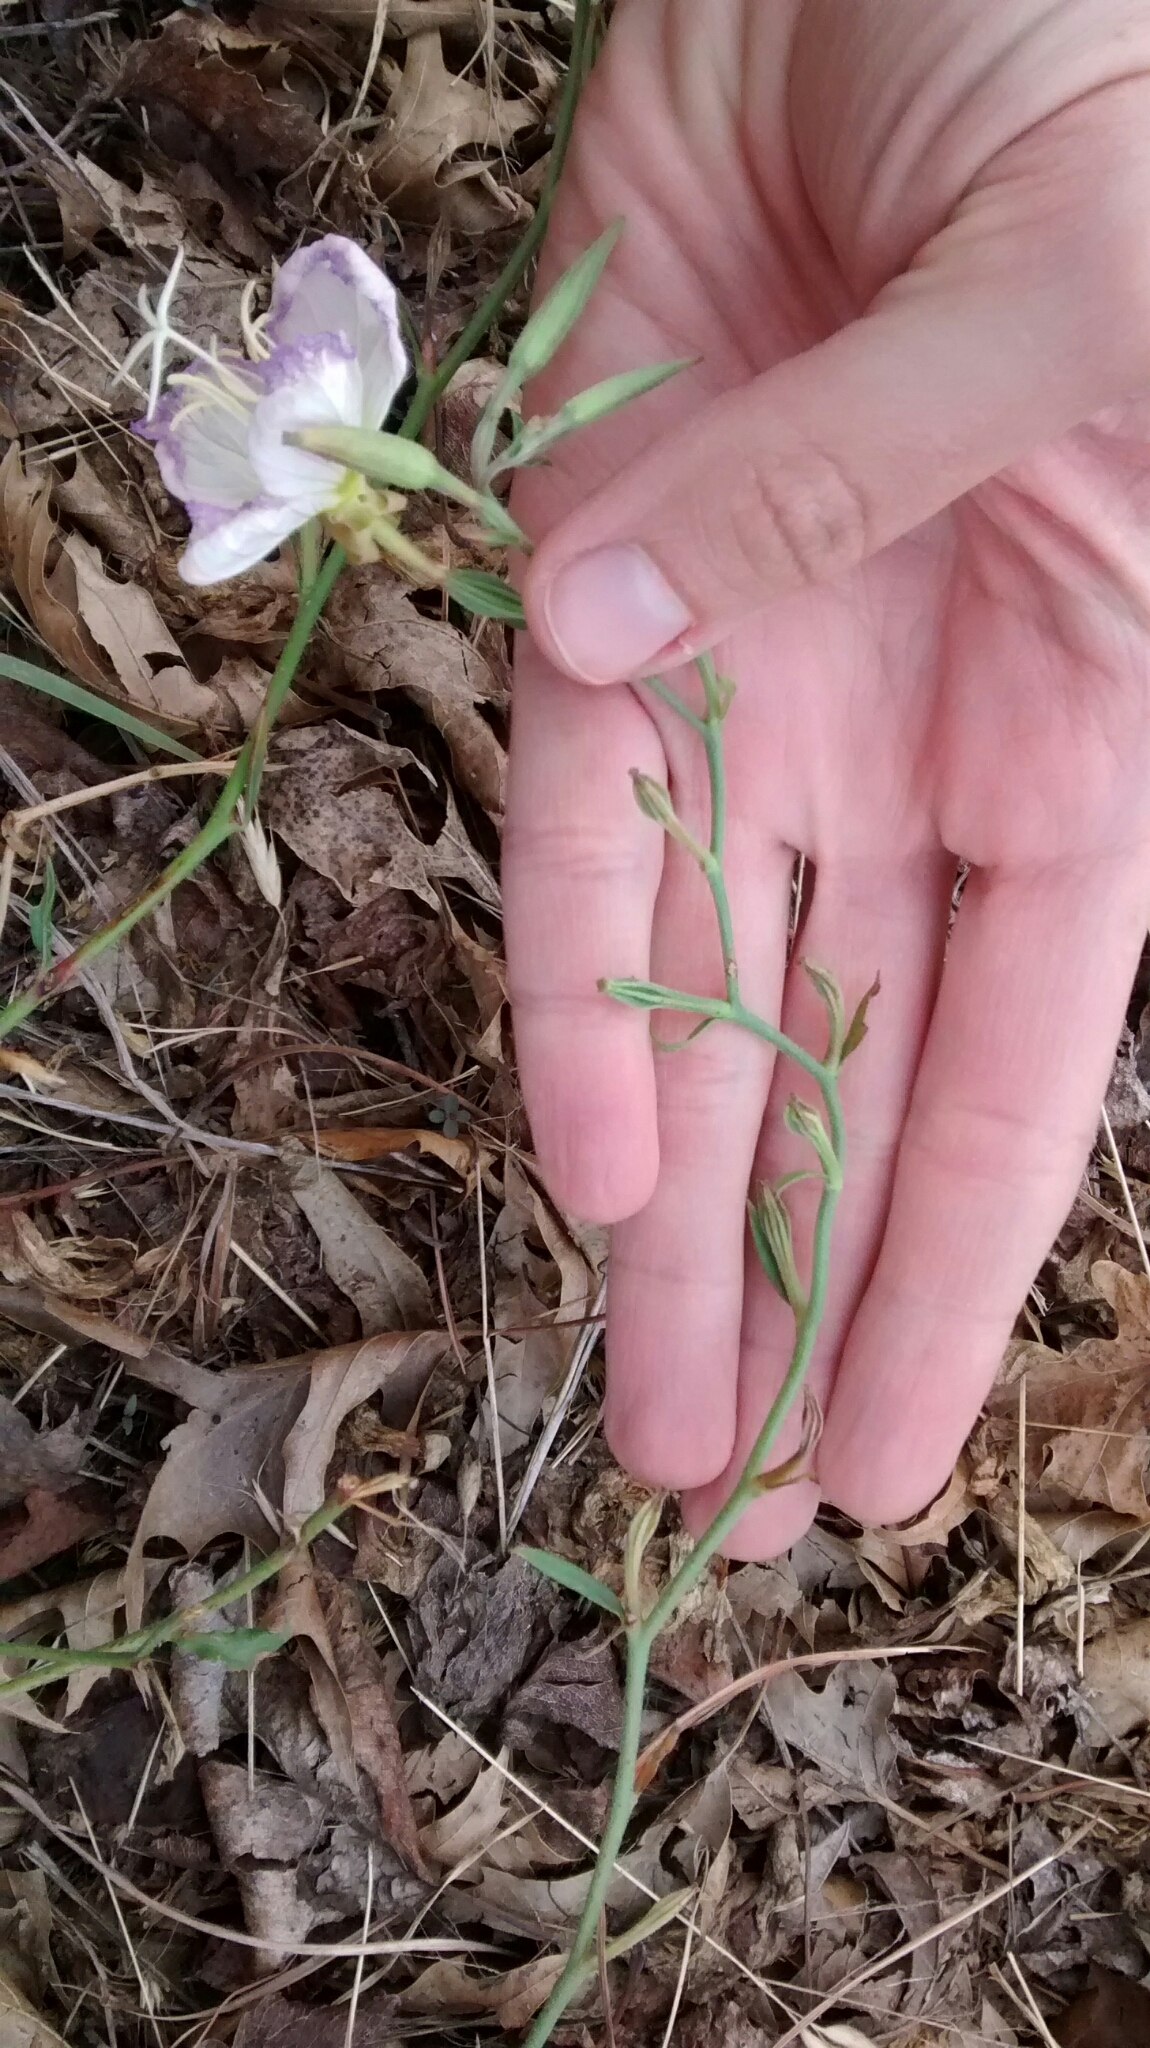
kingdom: Plantae
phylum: Tracheophyta
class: Magnoliopsida
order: Myrtales
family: Onagraceae
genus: Oenothera
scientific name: Oenothera speciosa
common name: White evening-primrose
